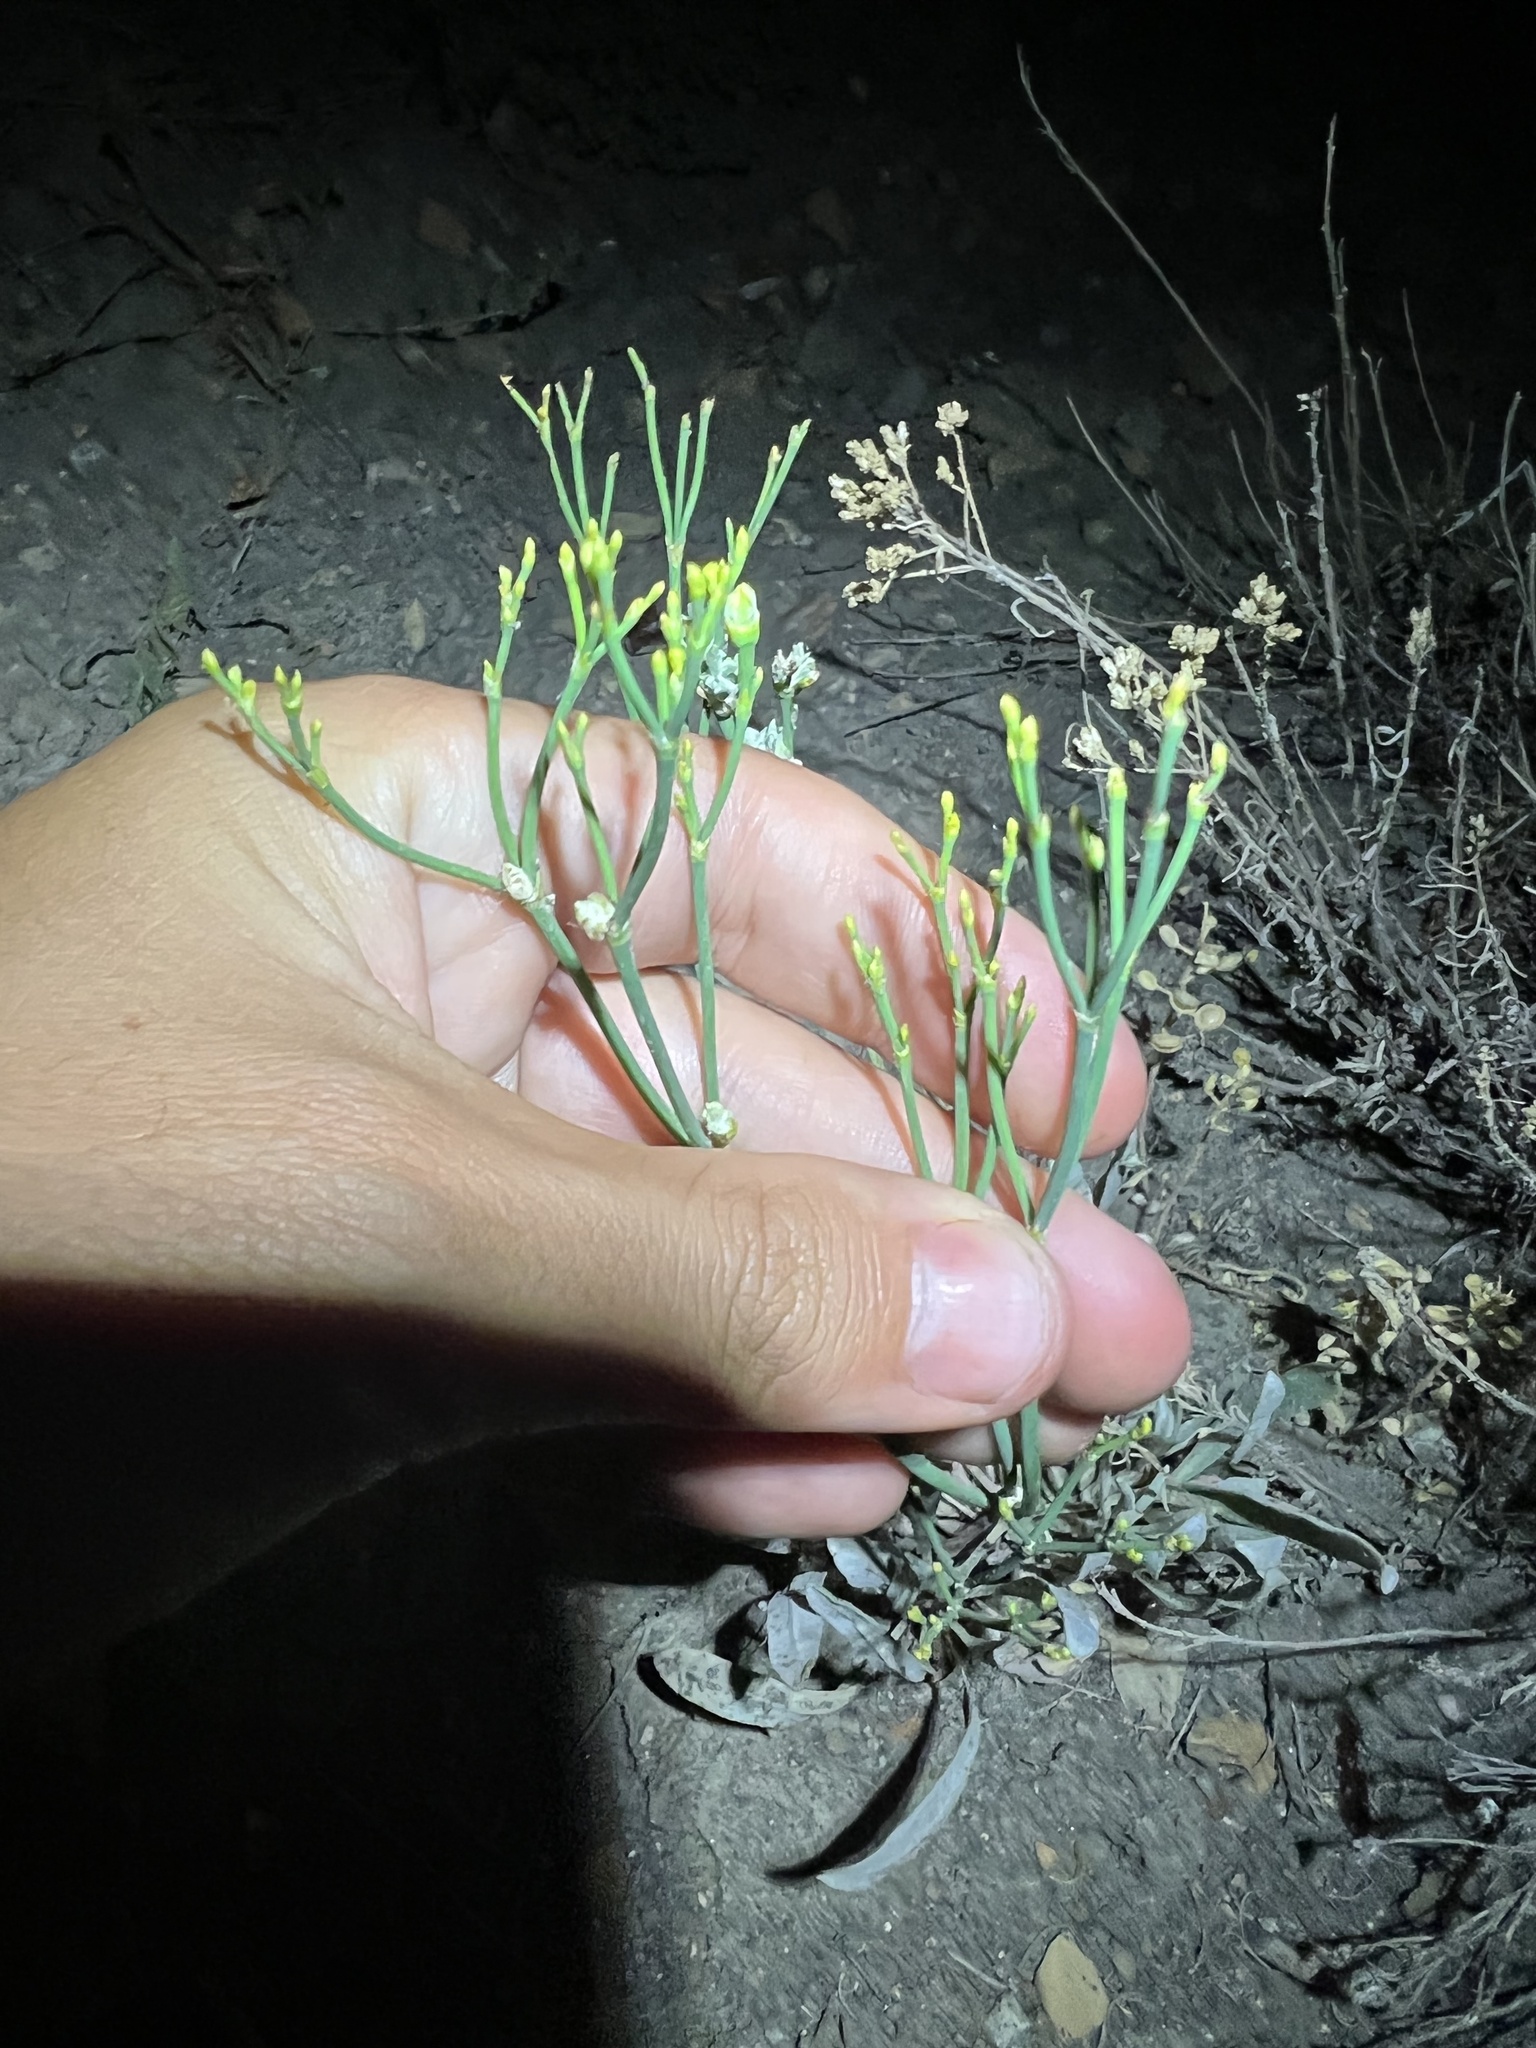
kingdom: Plantae
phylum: Tracheophyta
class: Magnoliopsida
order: Caryophyllales
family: Polygonaceae
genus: Eriogonum
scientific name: Eriogonum brevicaule
